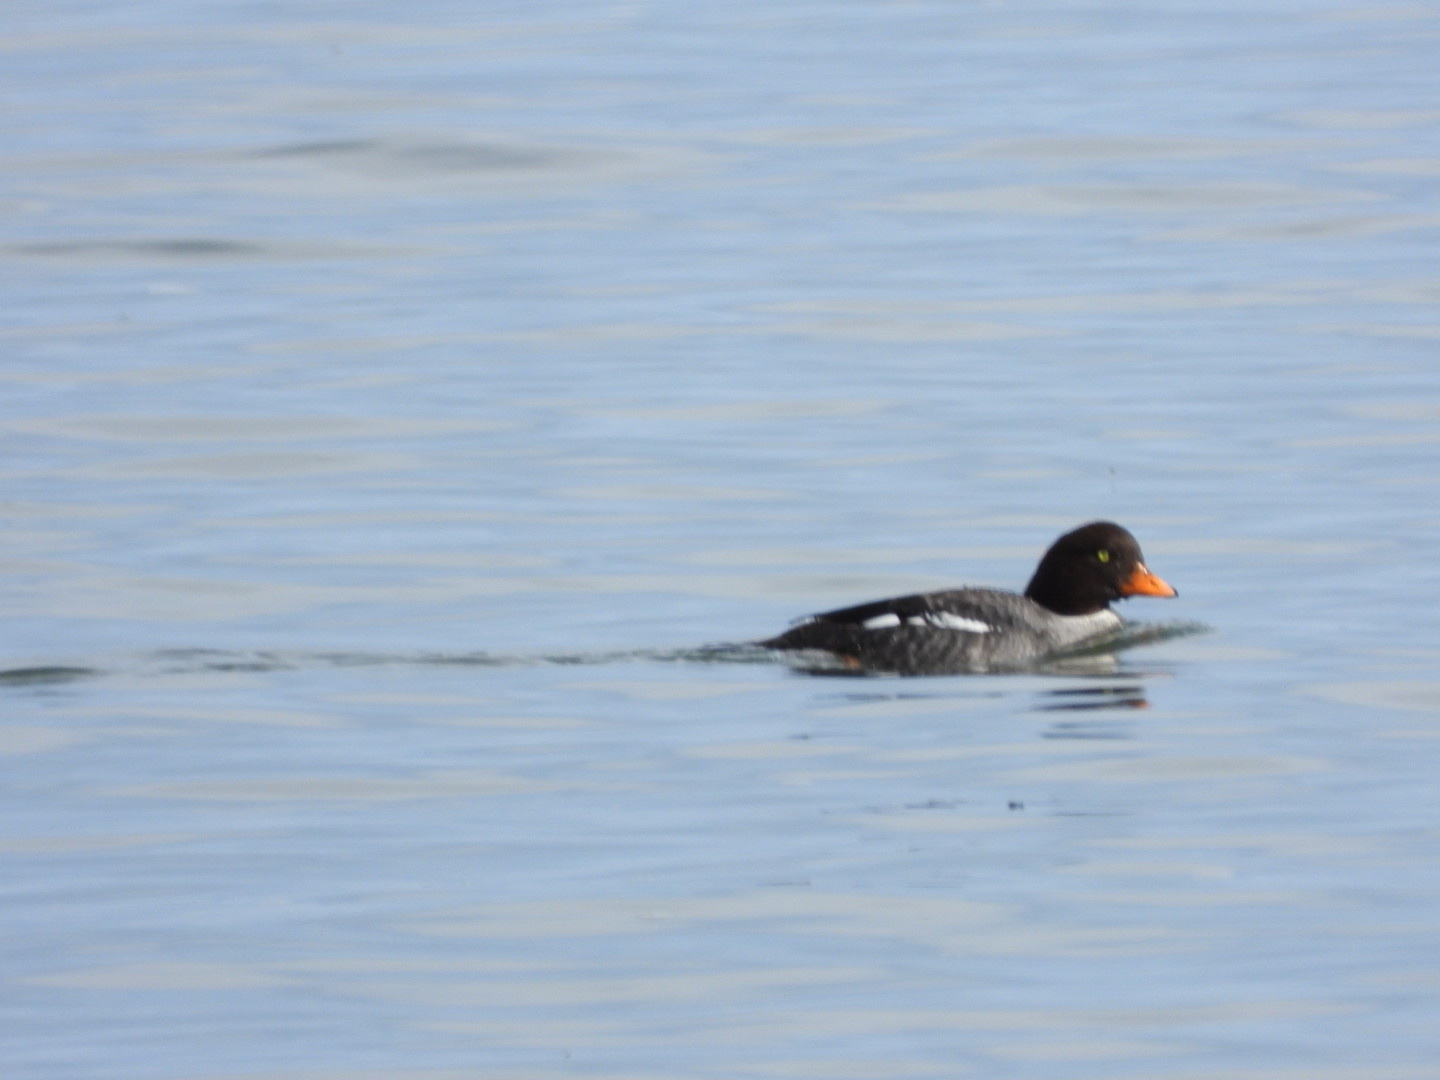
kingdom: Animalia
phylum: Chordata
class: Aves
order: Anseriformes
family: Anatidae
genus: Bucephala
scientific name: Bucephala islandica
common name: Barrow's goldeneye
